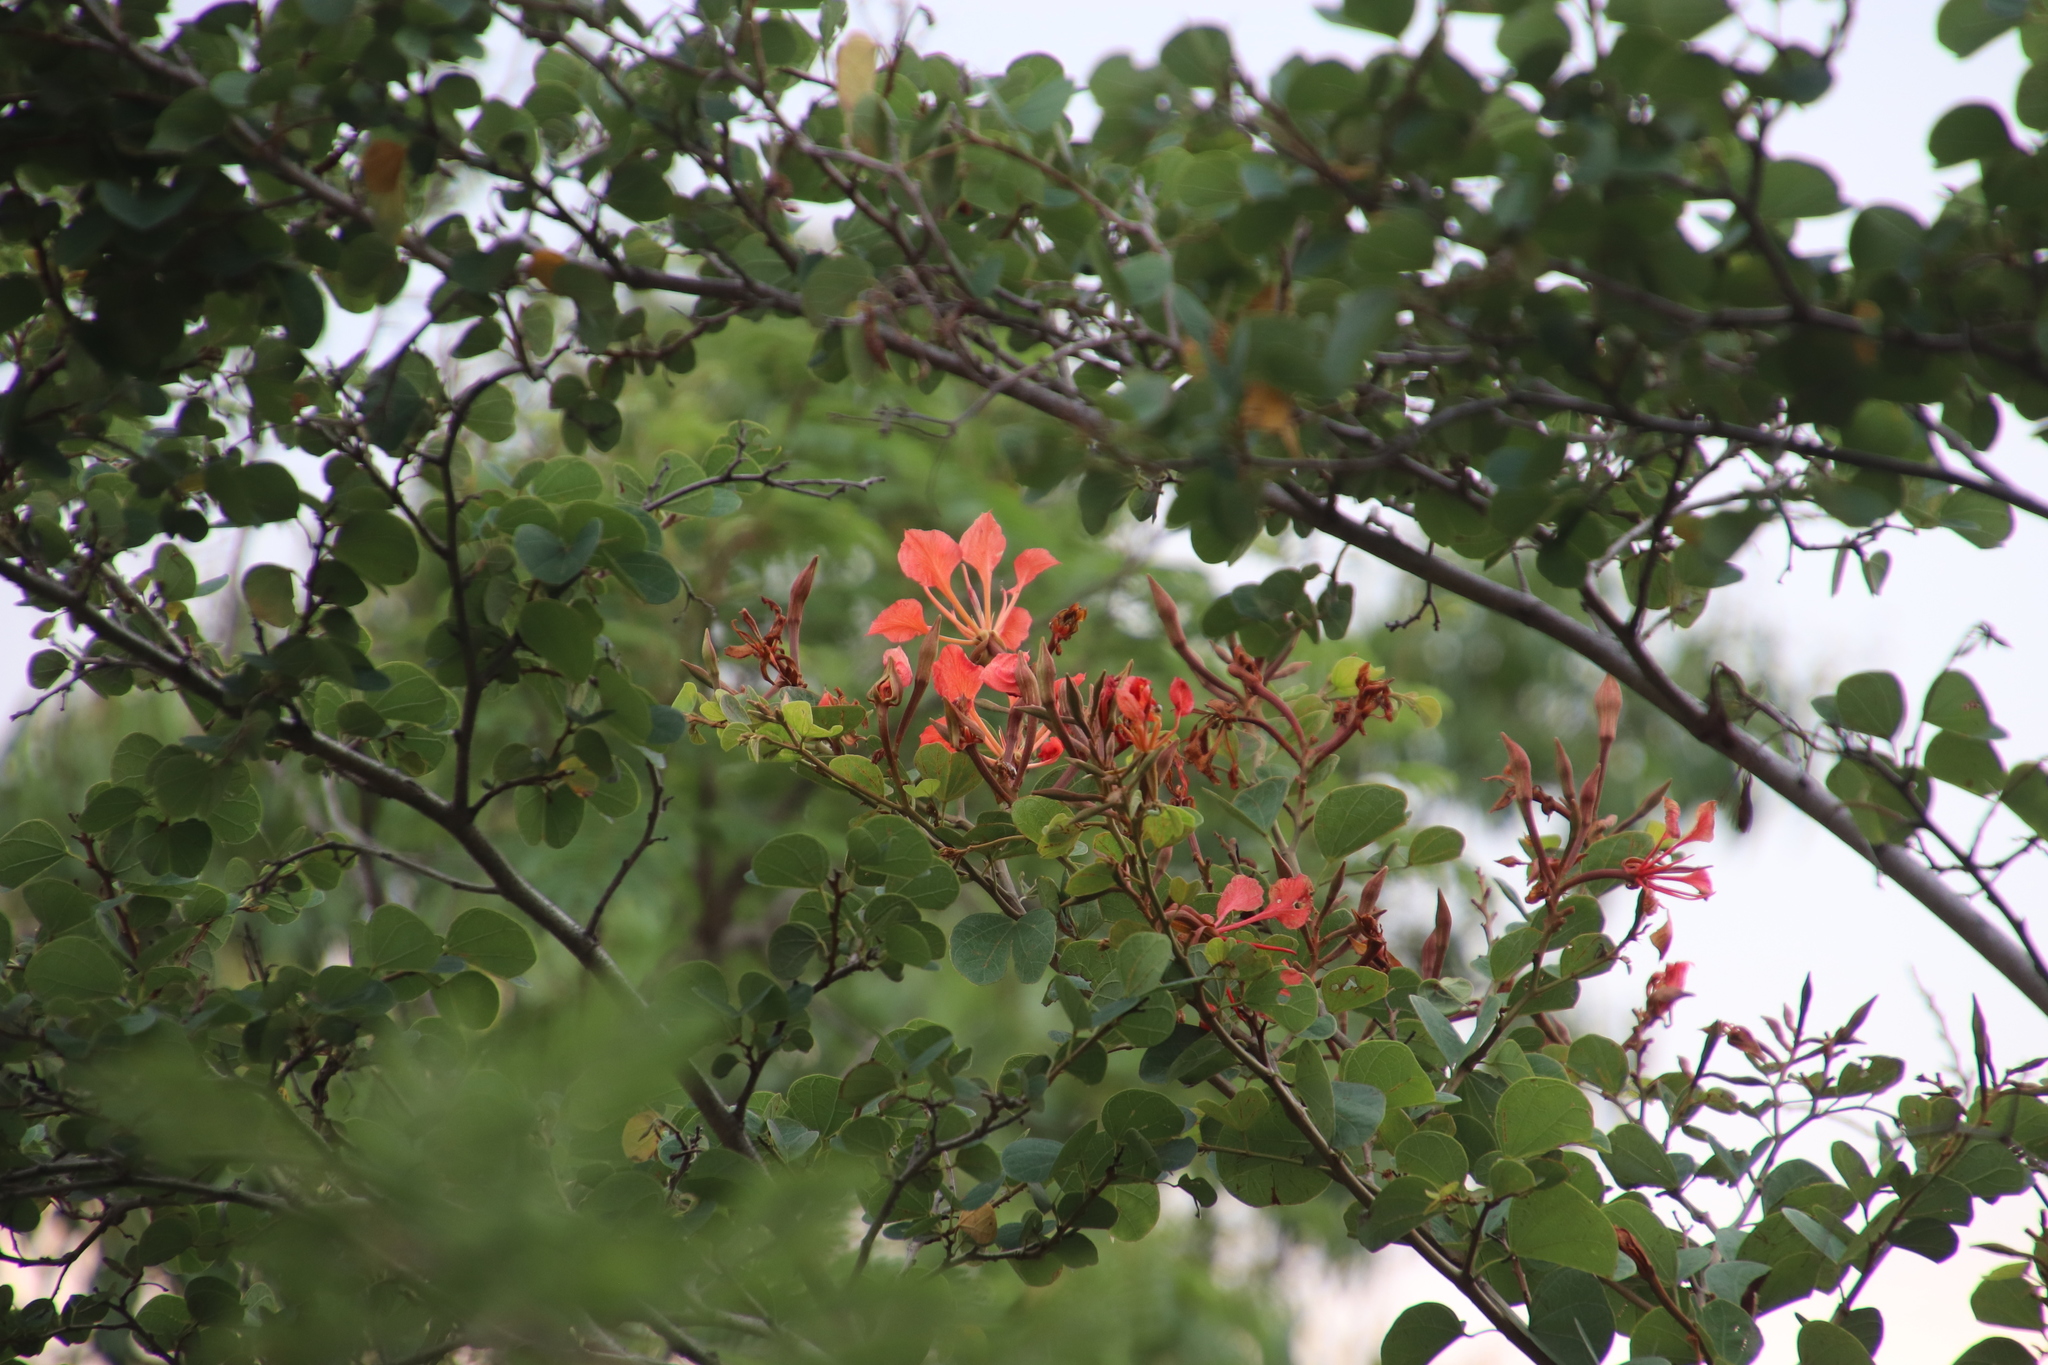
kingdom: Plantae
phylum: Tracheophyta
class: Magnoliopsida
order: Fabales
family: Fabaceae
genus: Bauhinia
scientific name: Bauhinia galpinii
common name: African plume
